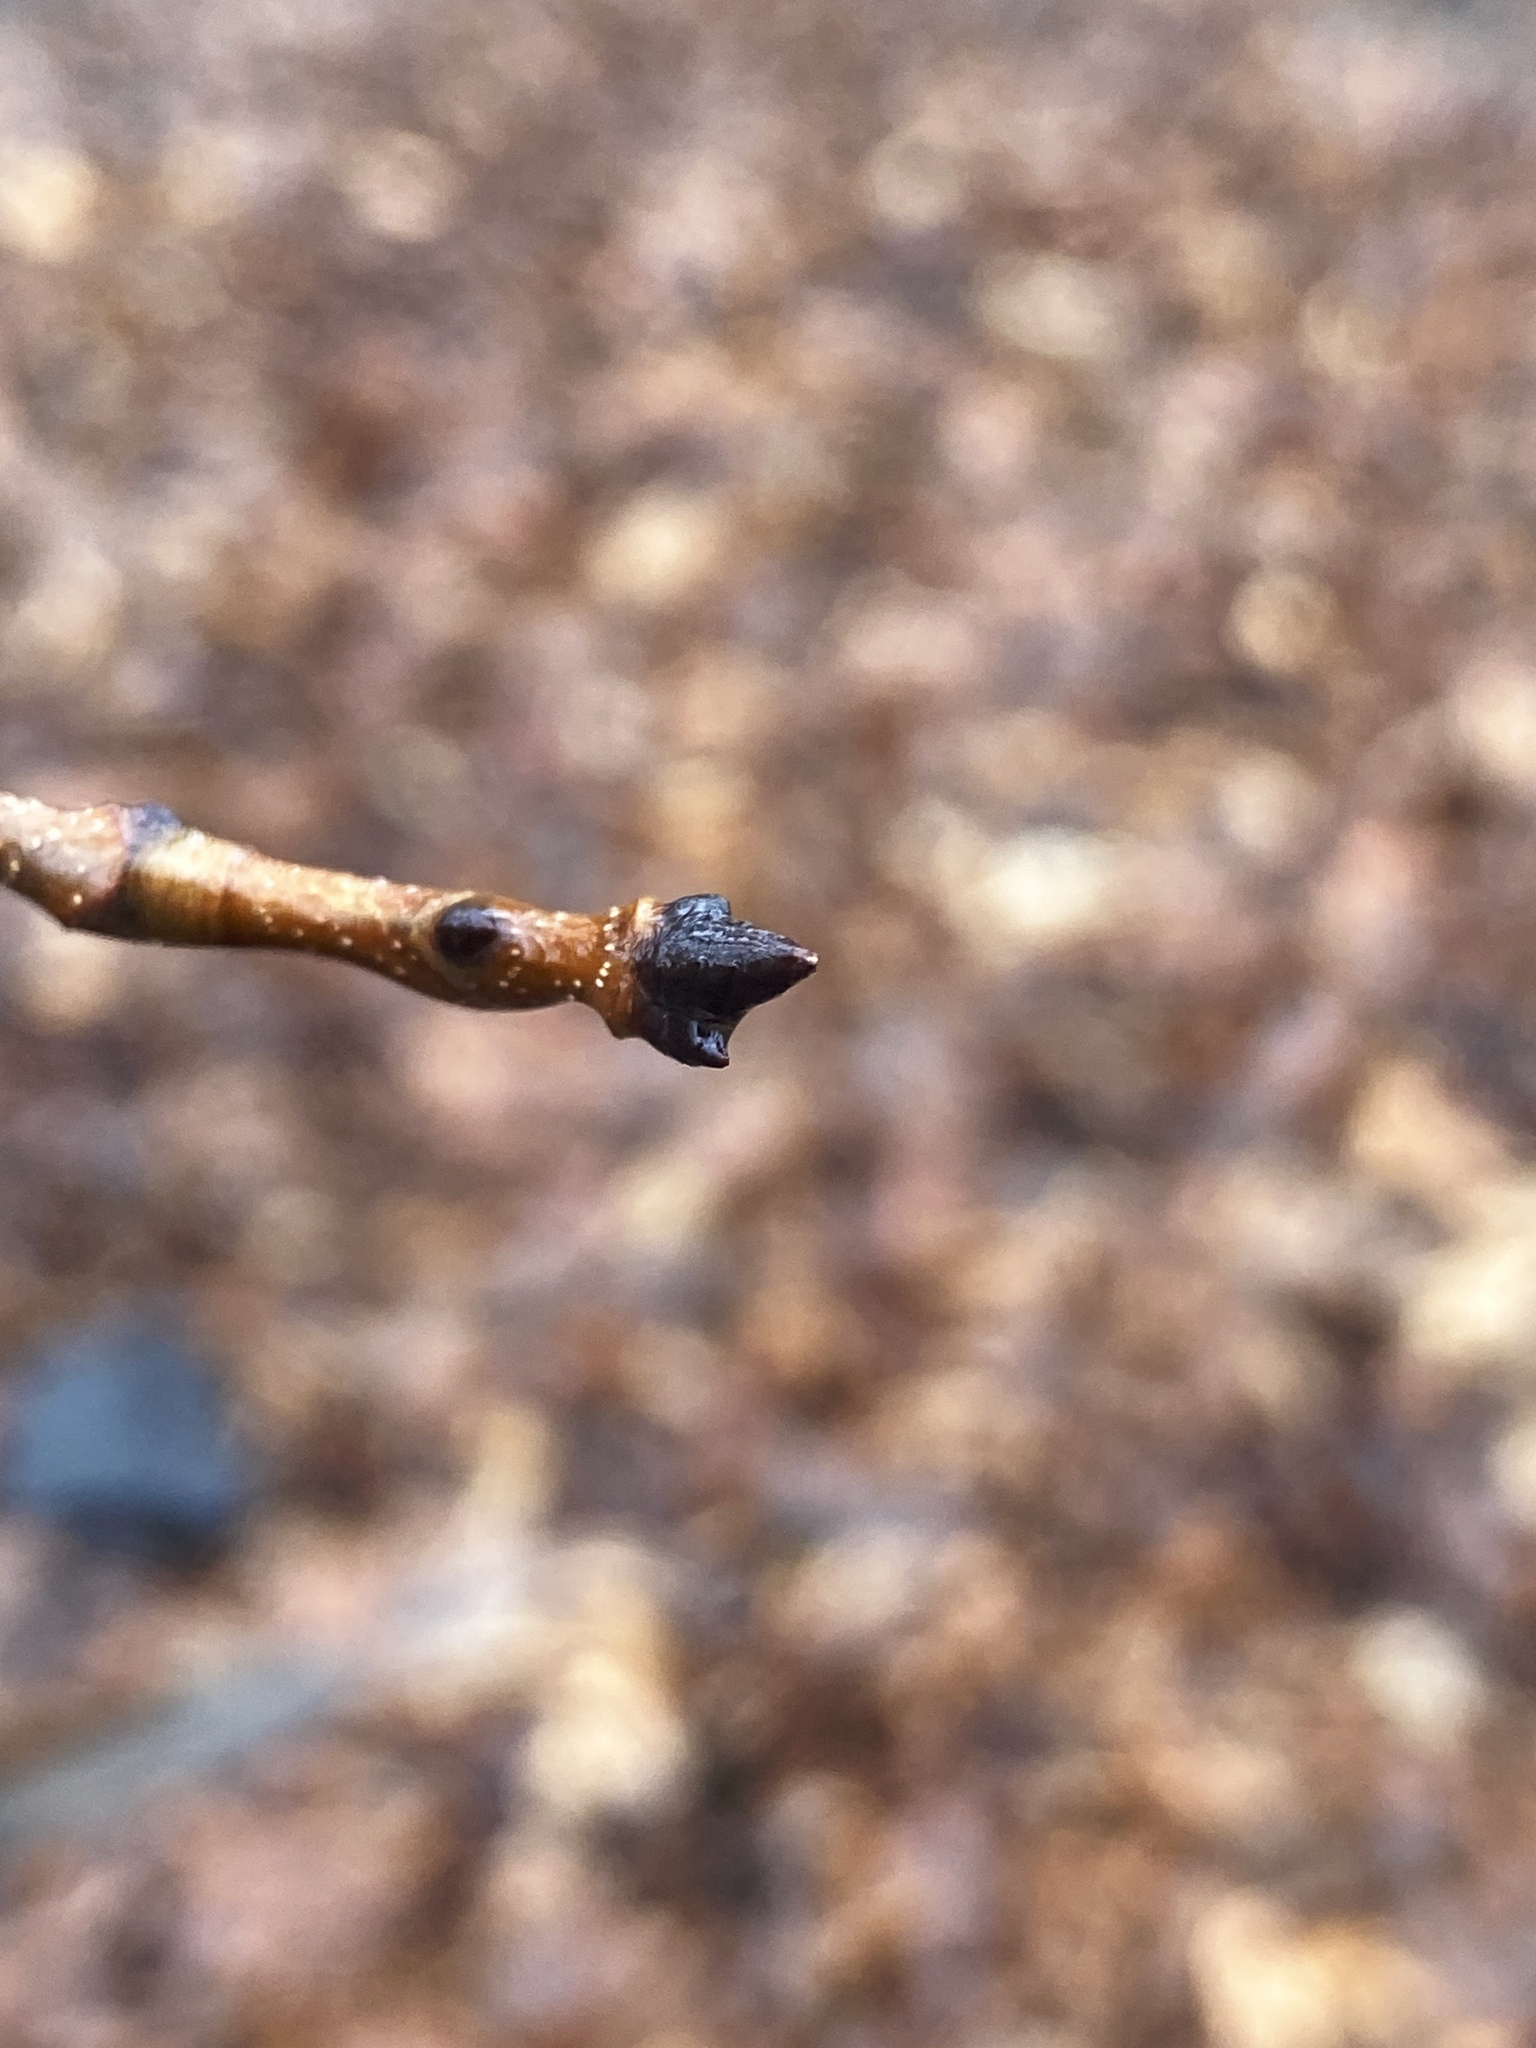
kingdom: Plantae
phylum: Tracheophyta
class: Magnoliopsida
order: Sapindales
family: Sapindaceae
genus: Acer
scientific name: Acer saccharum
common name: Sugar maple
